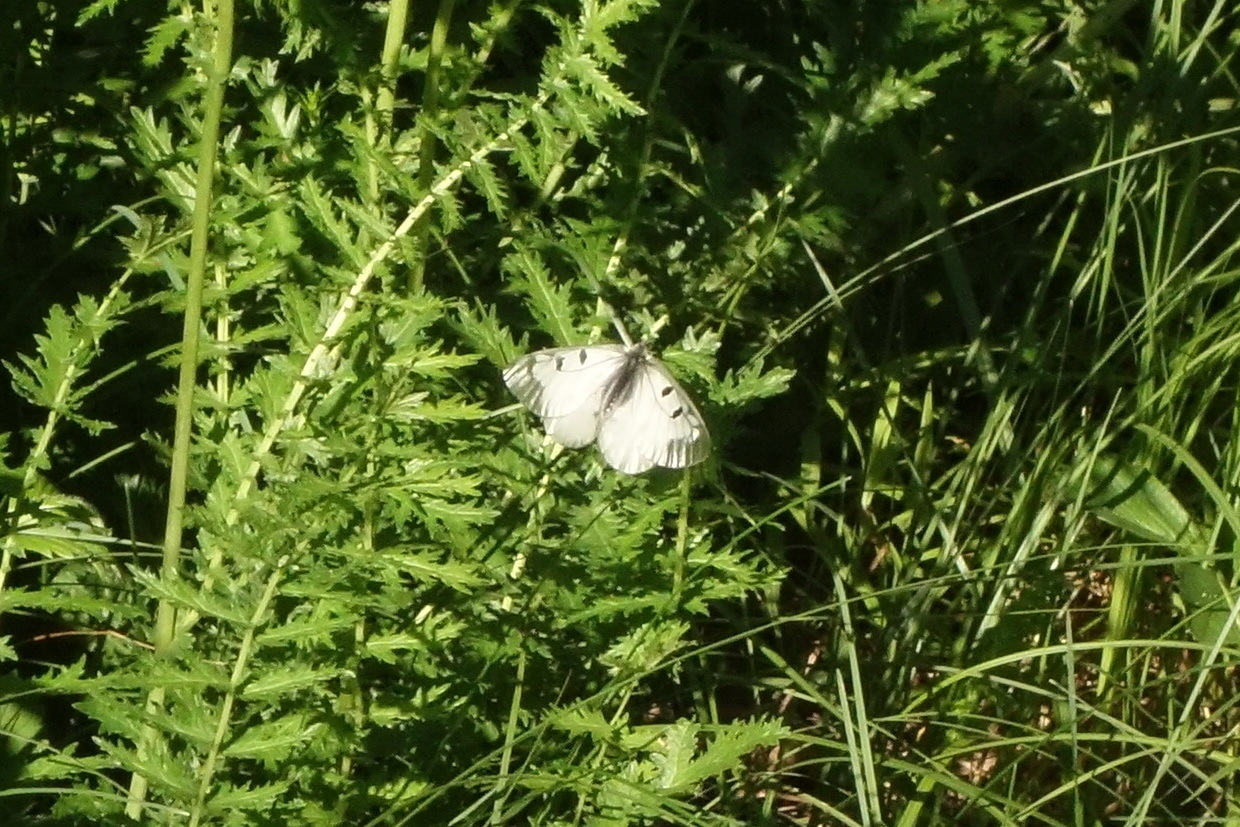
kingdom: Animalia
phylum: Arthropoda
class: Insecta
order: Lepidoptera
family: Papilionidae
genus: Parnassius
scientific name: Parnassius mnemosyne
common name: Clouded apollo
